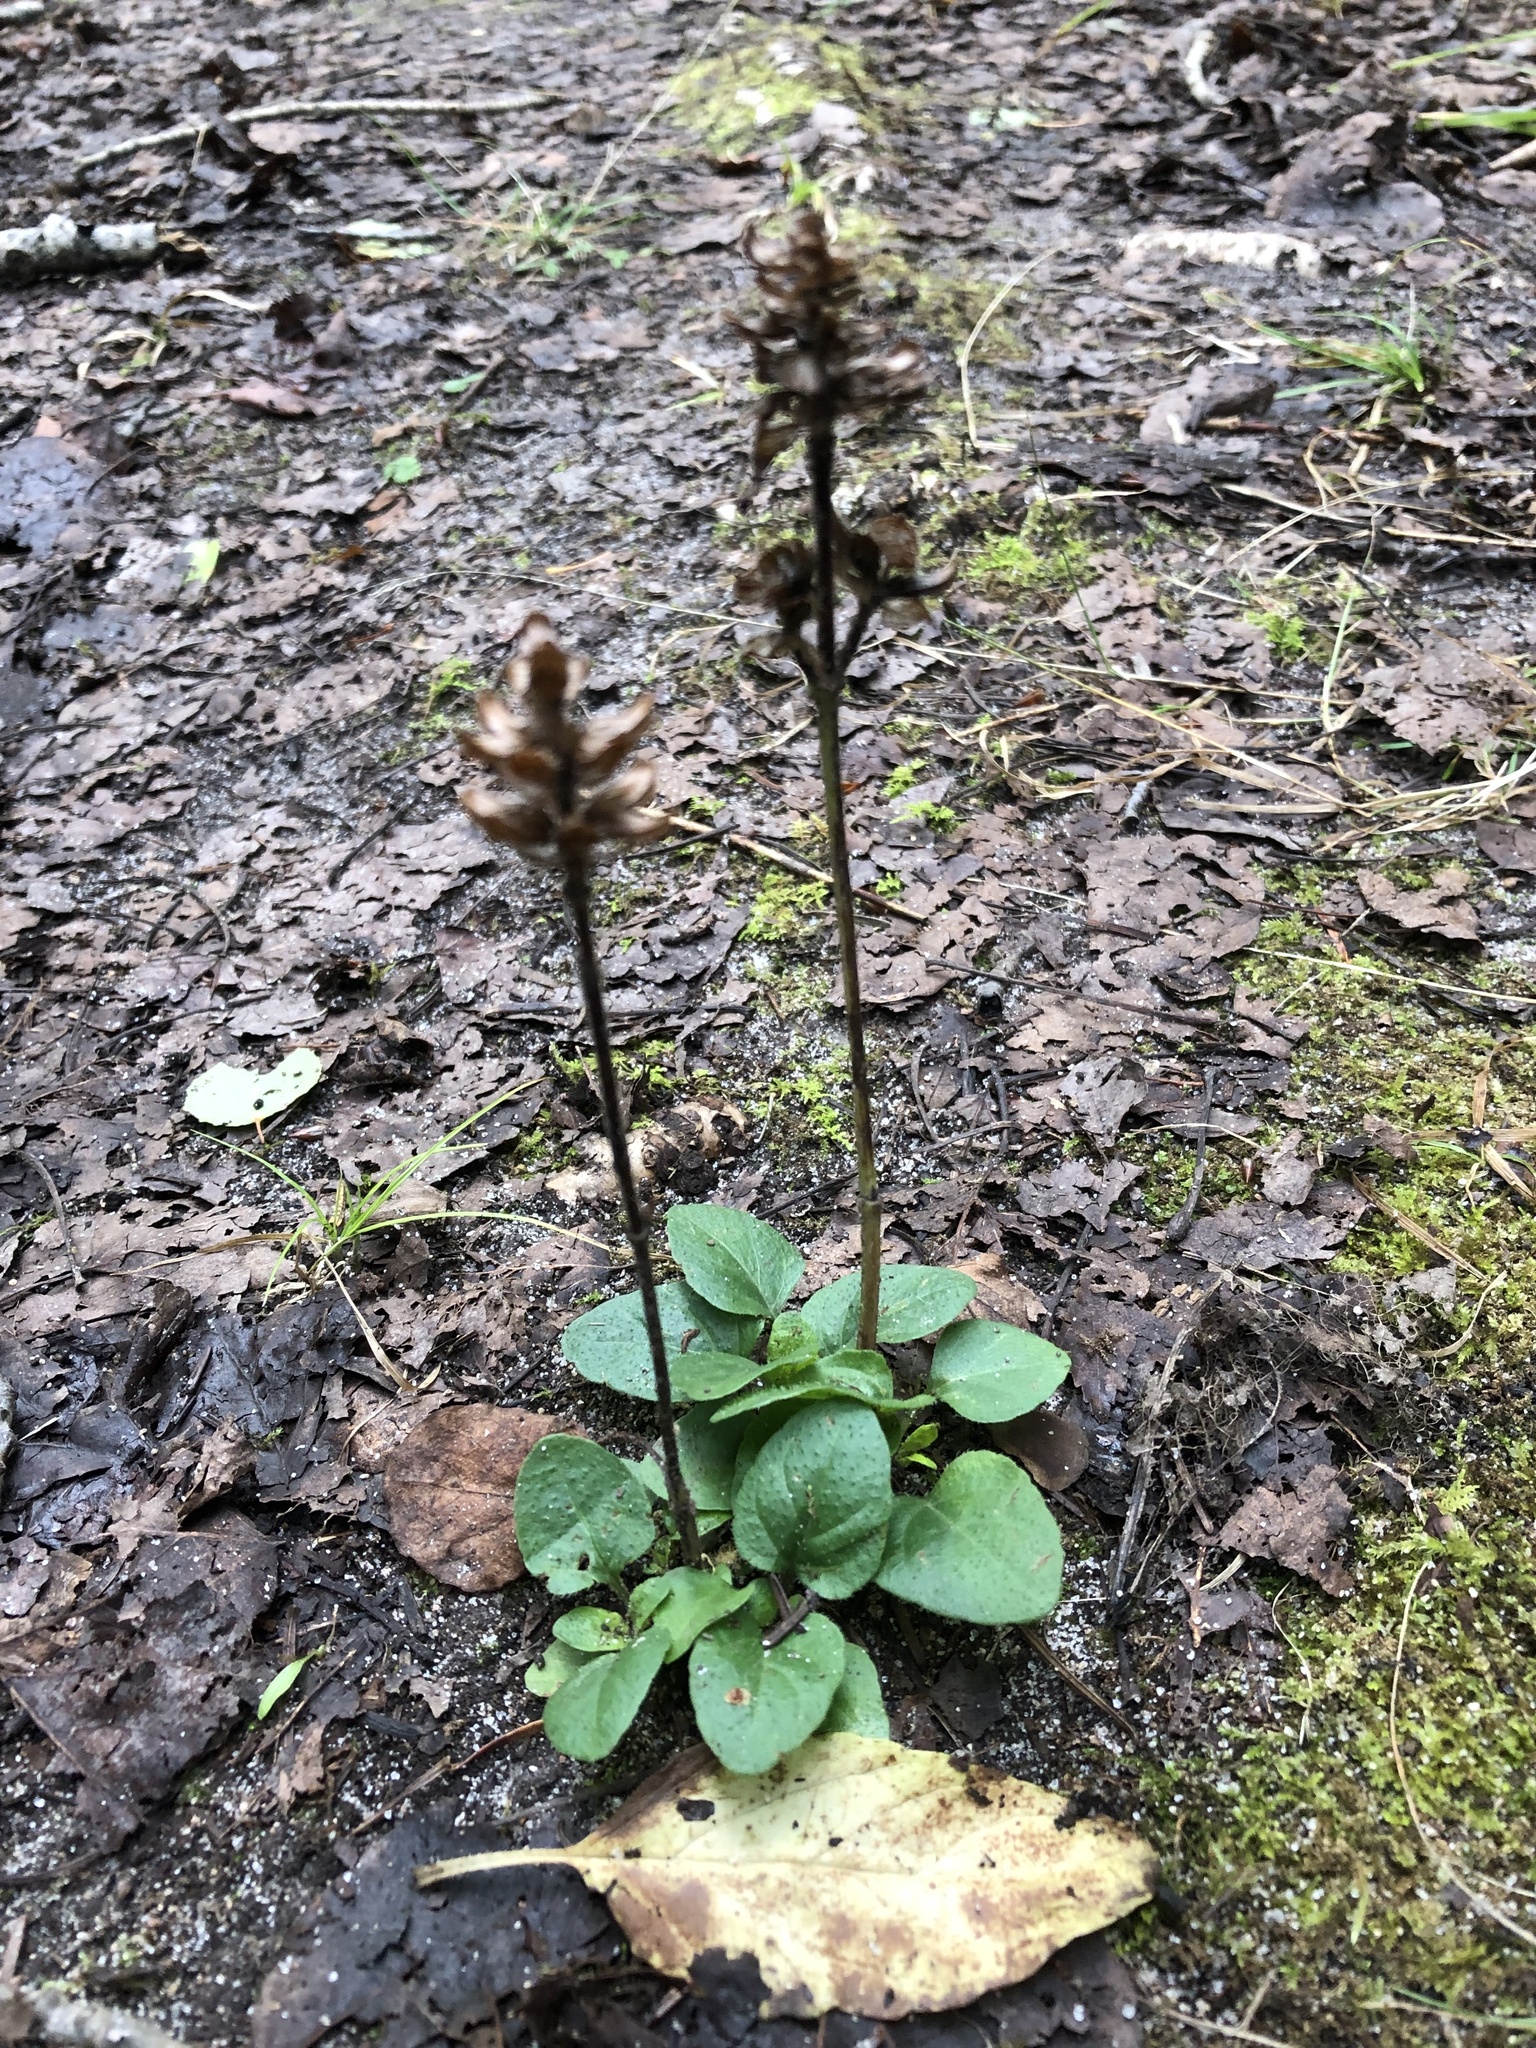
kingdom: Plantae
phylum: Tracheophyta
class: Magnoliopsida
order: Lamiales
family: Lamiaceae
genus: Prunella
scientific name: Prunella vulgaris
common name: Heal-all
